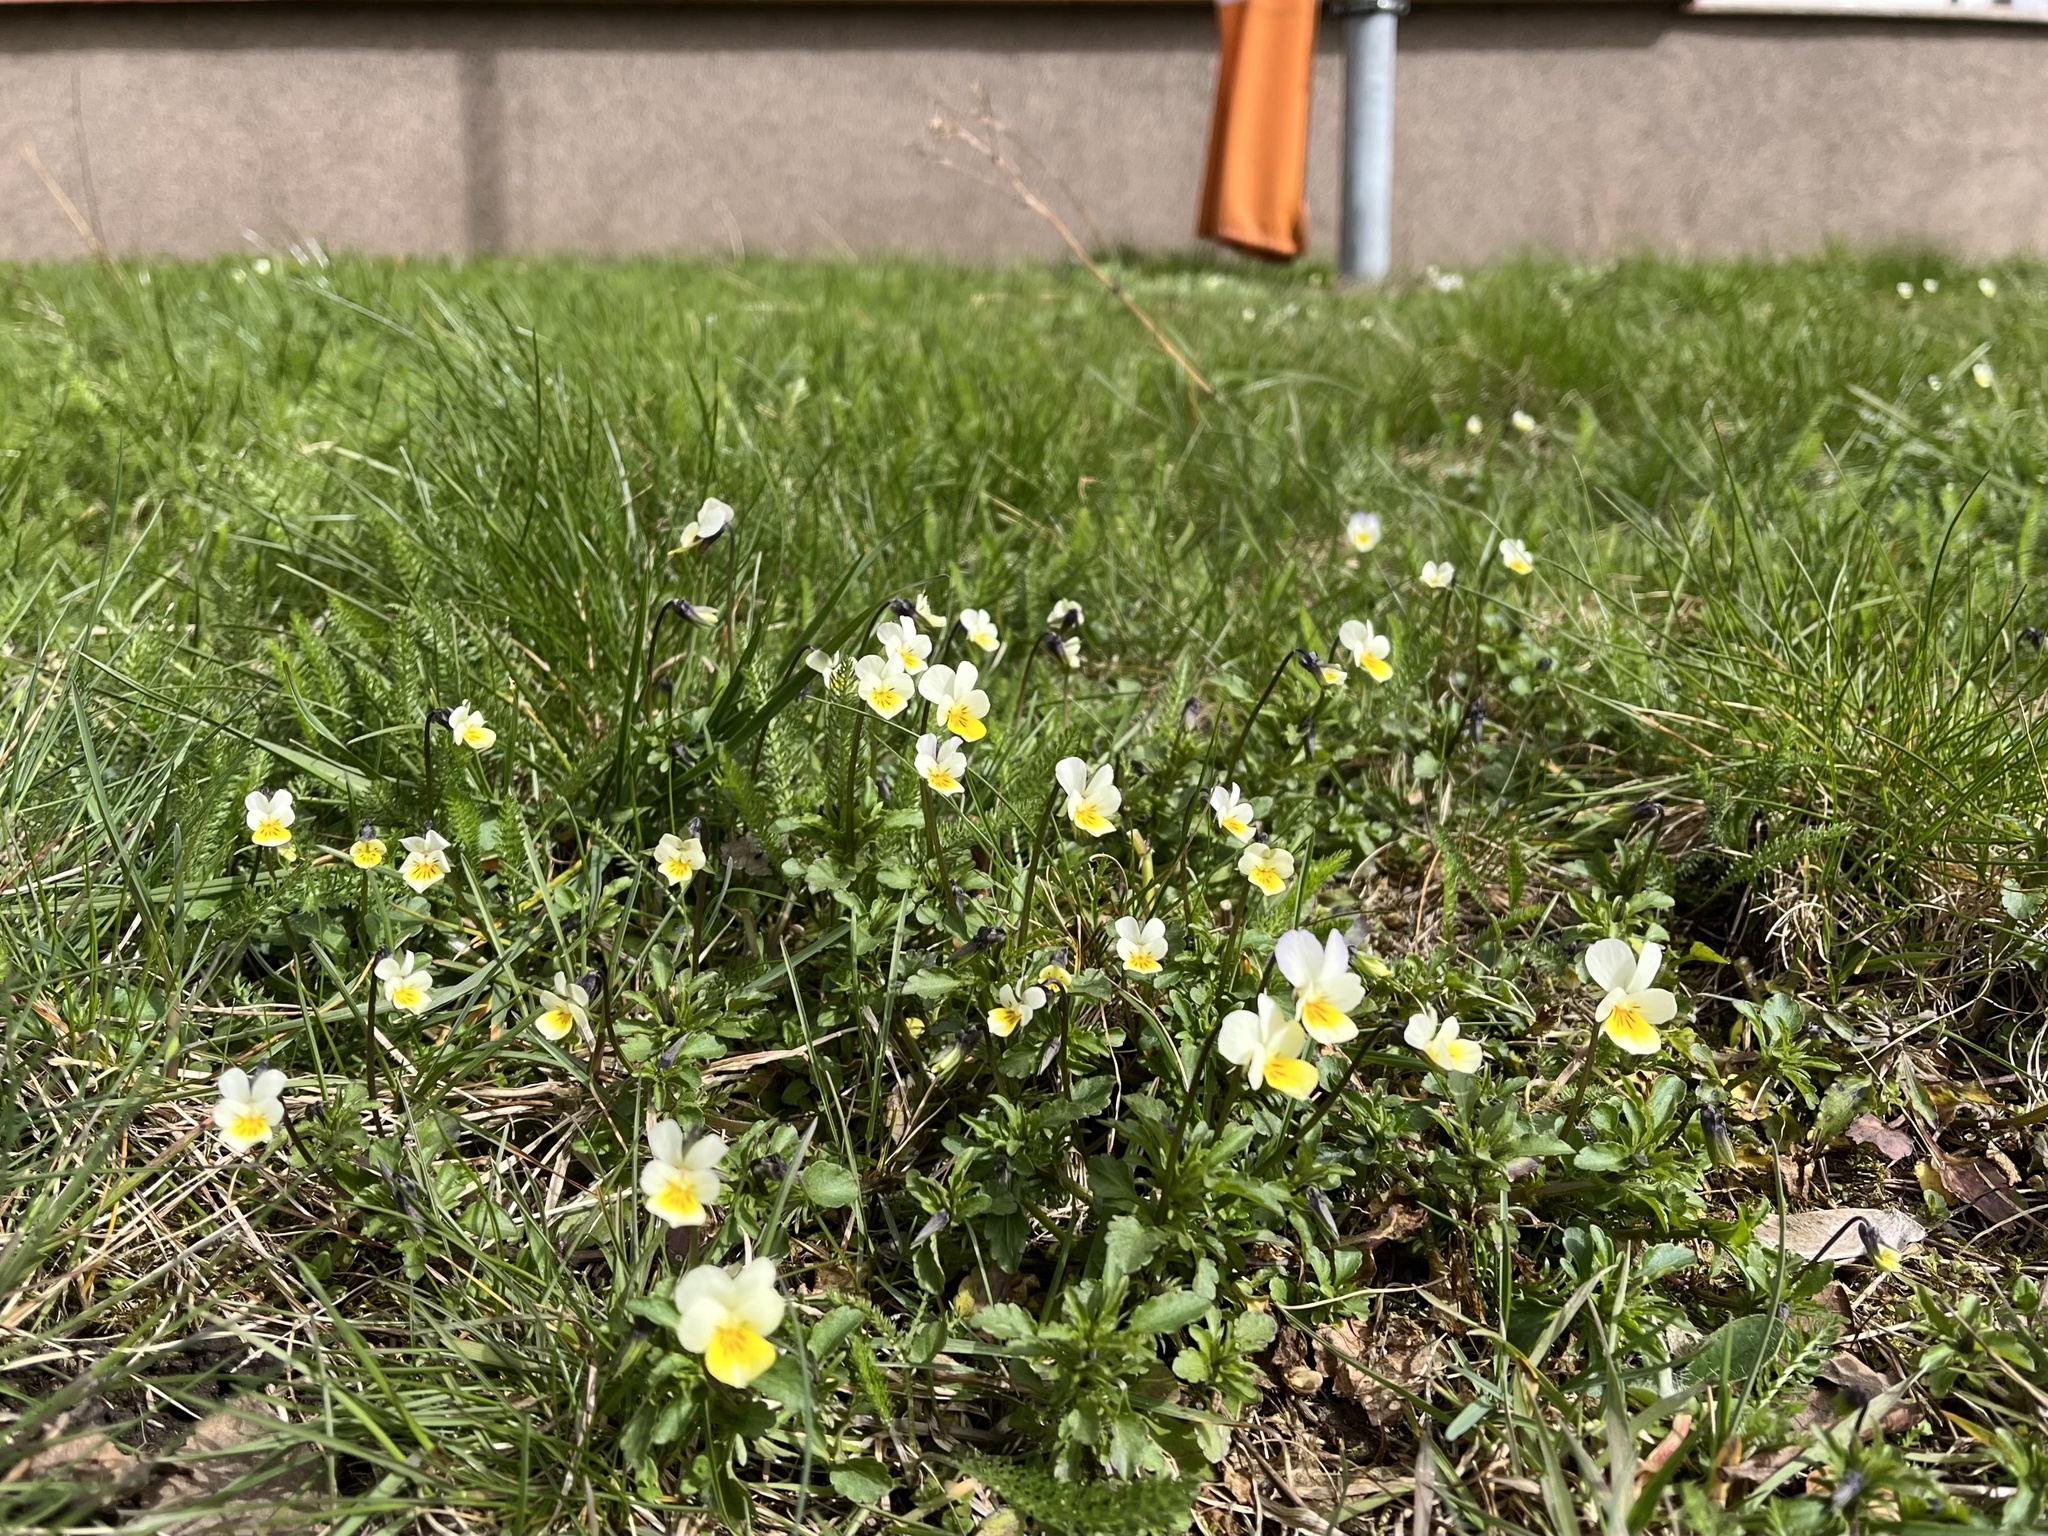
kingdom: Plantae
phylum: Tracheophyta
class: Magnoliopsida
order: Malpighiales
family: Violaceae
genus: Viola
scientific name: Viola arvensis
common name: Field pansy
